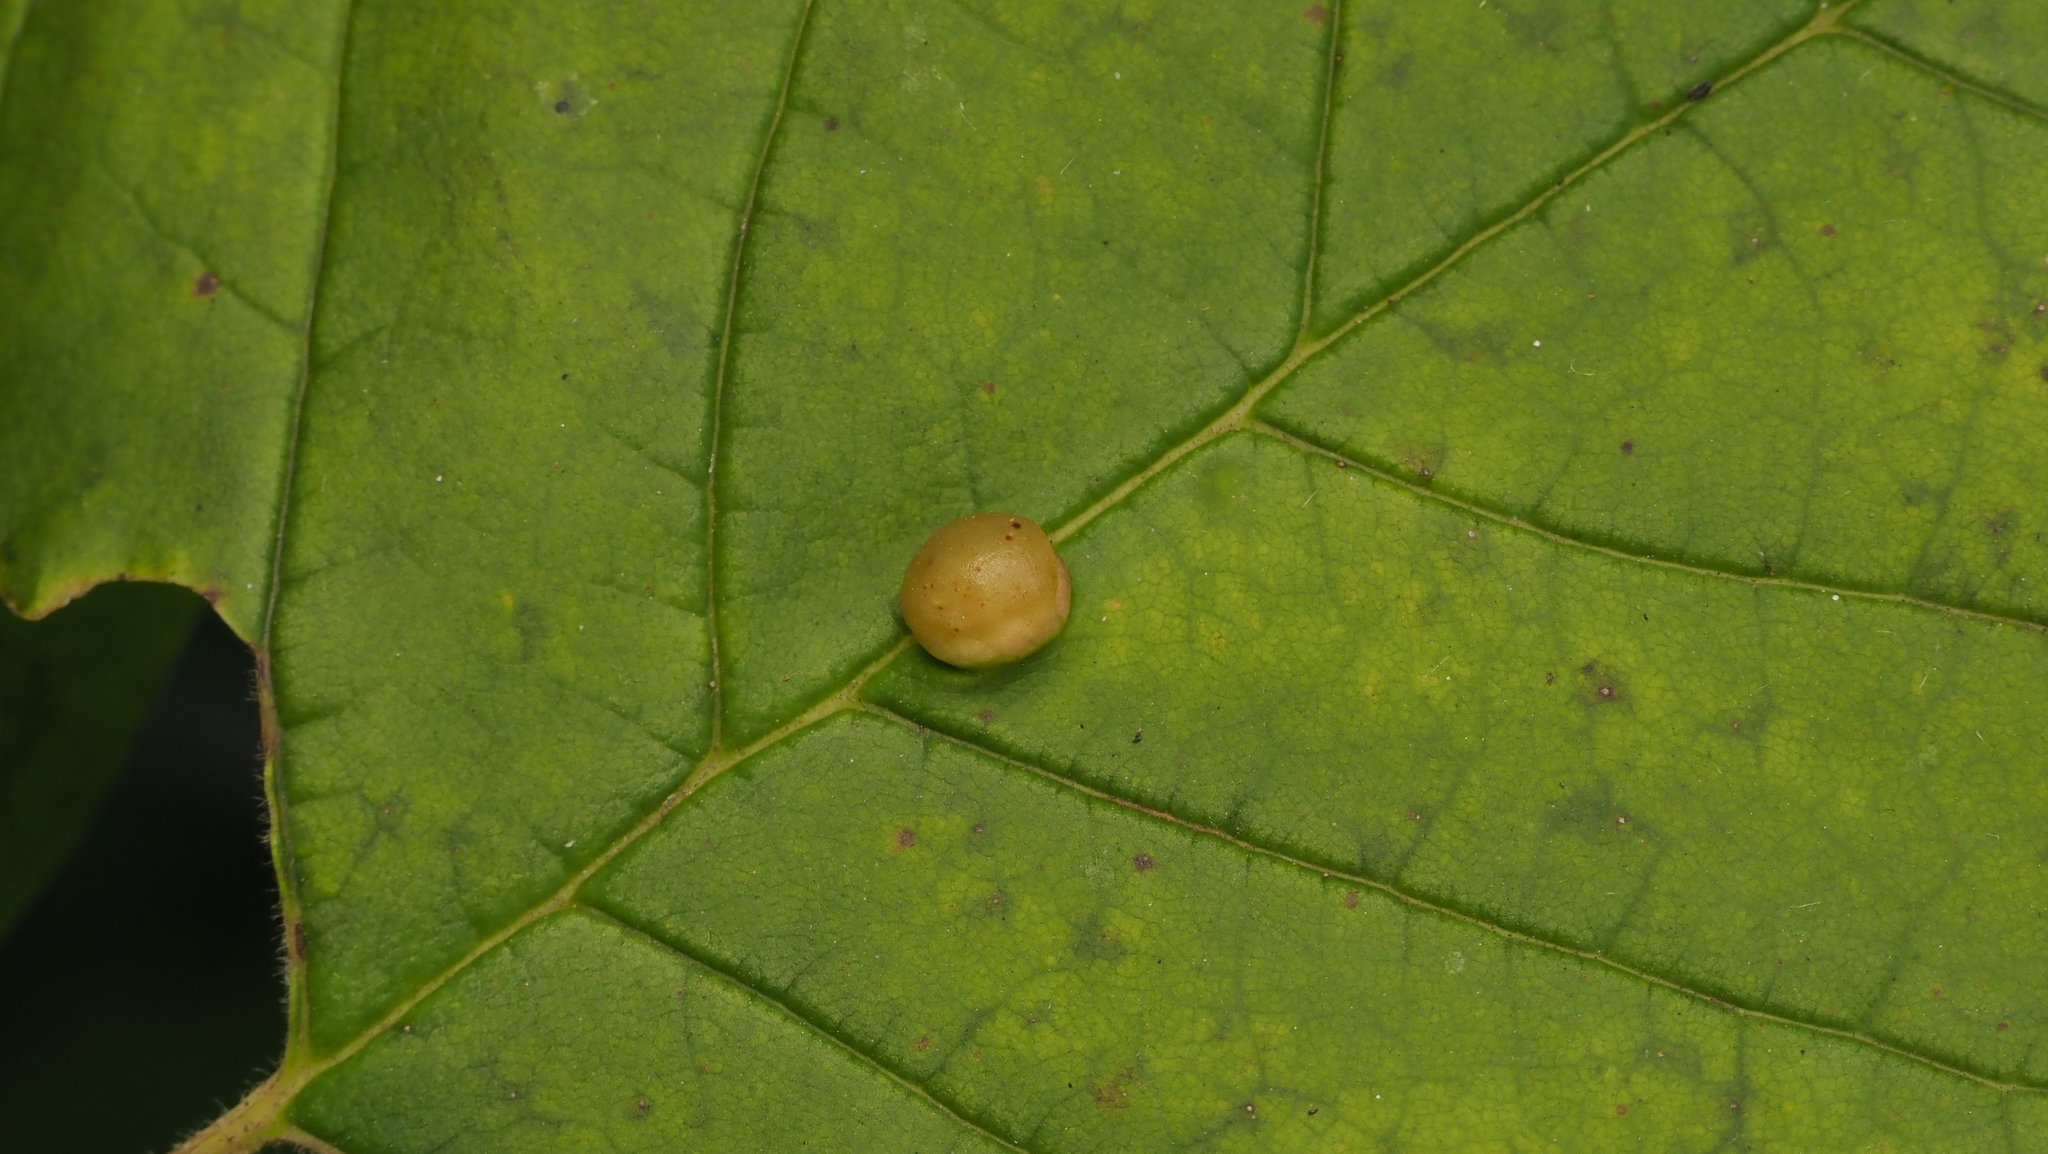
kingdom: Animalia
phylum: Arthropoda
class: Insecta
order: Diptera
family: Cecidomyiidae
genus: Dasineura
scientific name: Dasineura pellex
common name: Ash bullet gall midge
